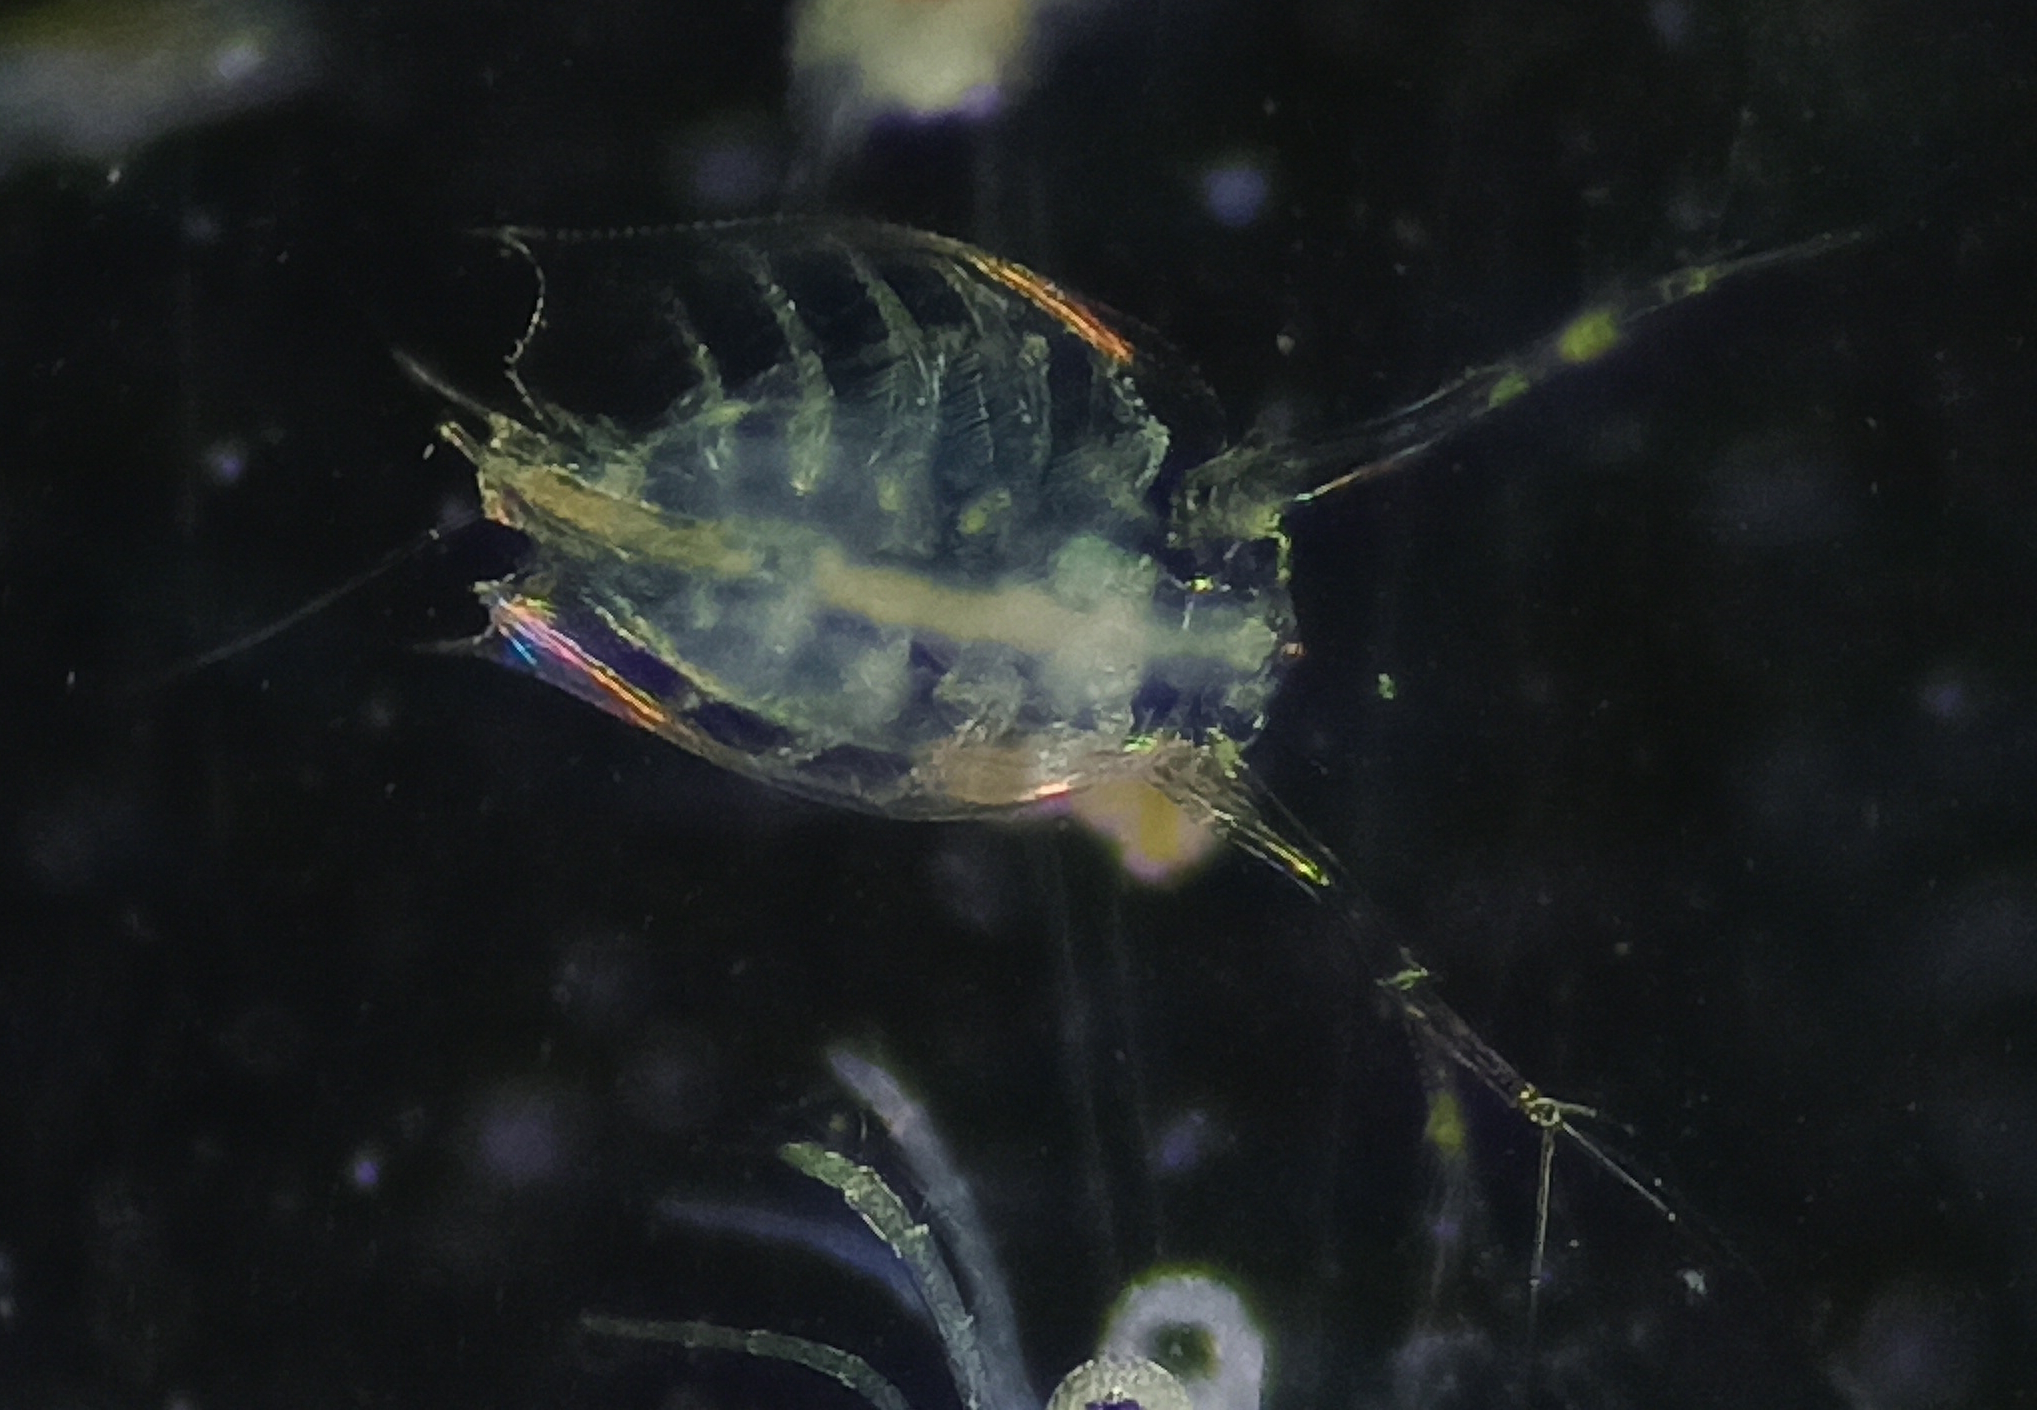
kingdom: Animalia
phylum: Arthropoda
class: Branchiopoda
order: Diplostraca
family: Sididae
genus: Penilia
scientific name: Penilia avirostris
